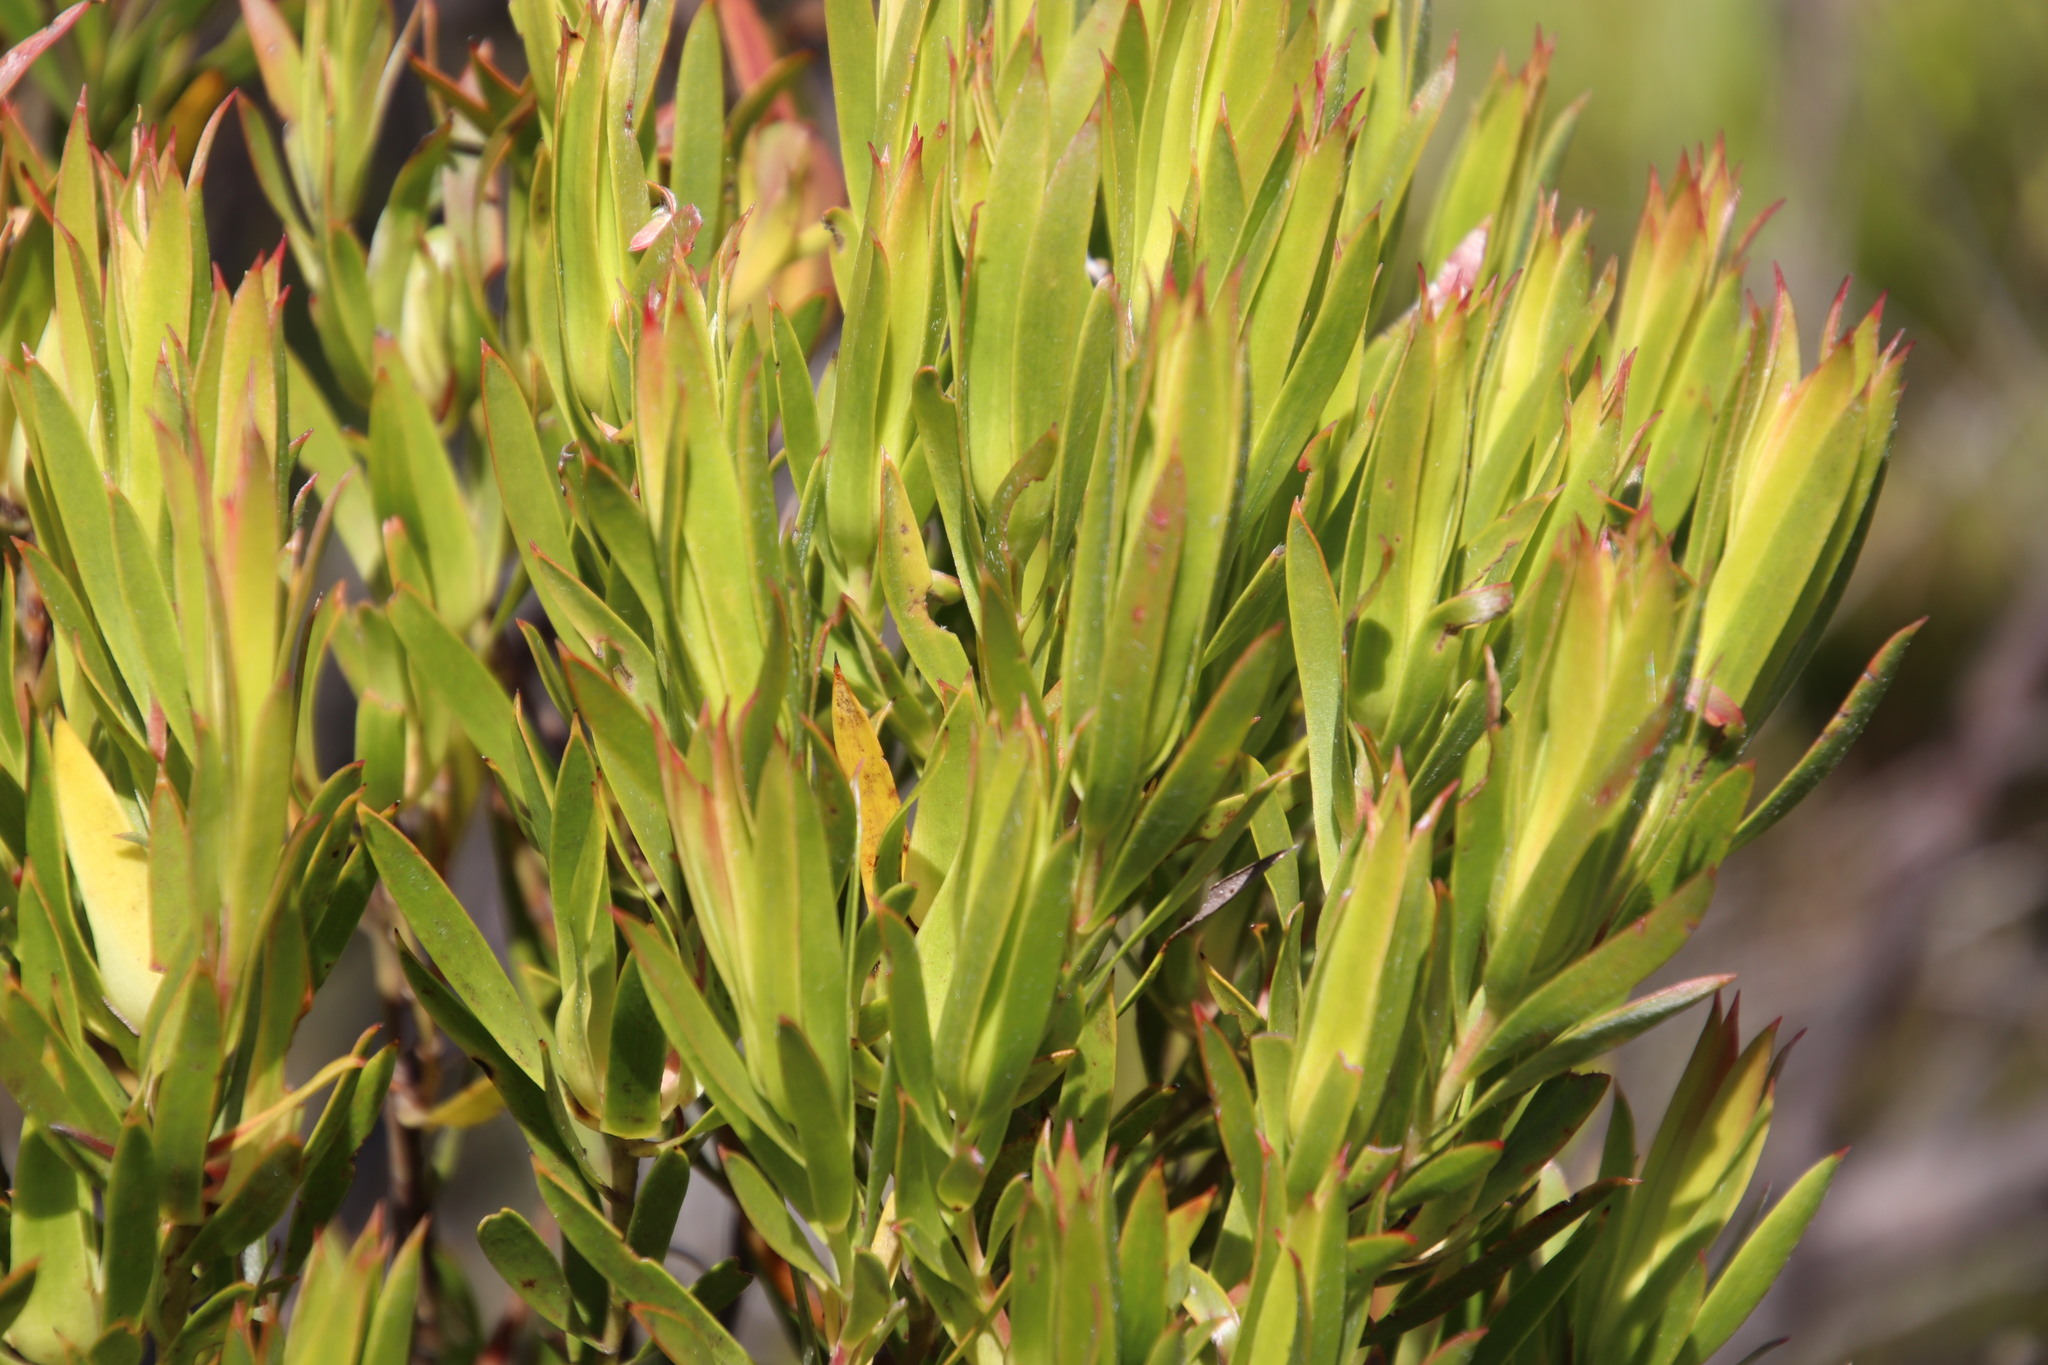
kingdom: Plantae
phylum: Tracheophyta
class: Magnoliopsida
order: Proteales
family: Proteaceae
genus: Leucadendron
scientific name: Leucadendron xanthoconus
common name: Sickle-leaf conebush
